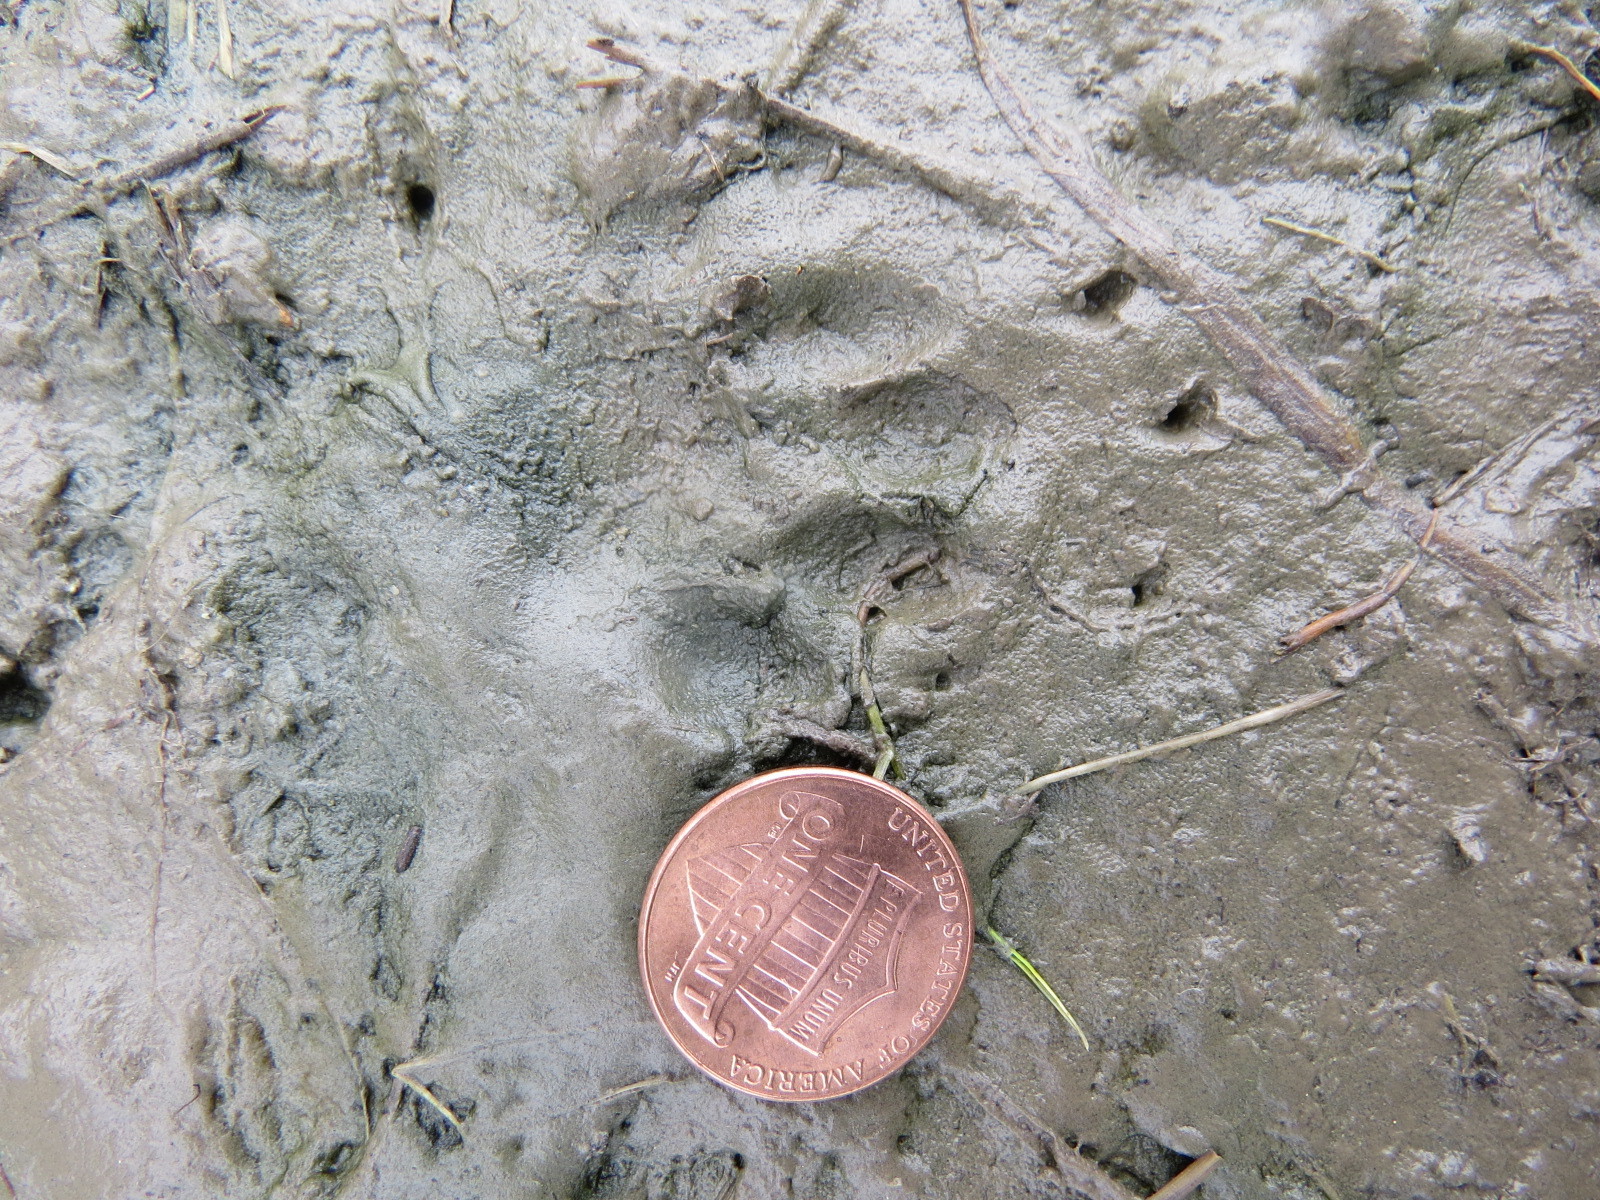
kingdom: Animalia
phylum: Chordata
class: Mammalia
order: Carnivora
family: Mephitidae
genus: Mephitis
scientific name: Mephitis mephitis
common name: Striped skunk
